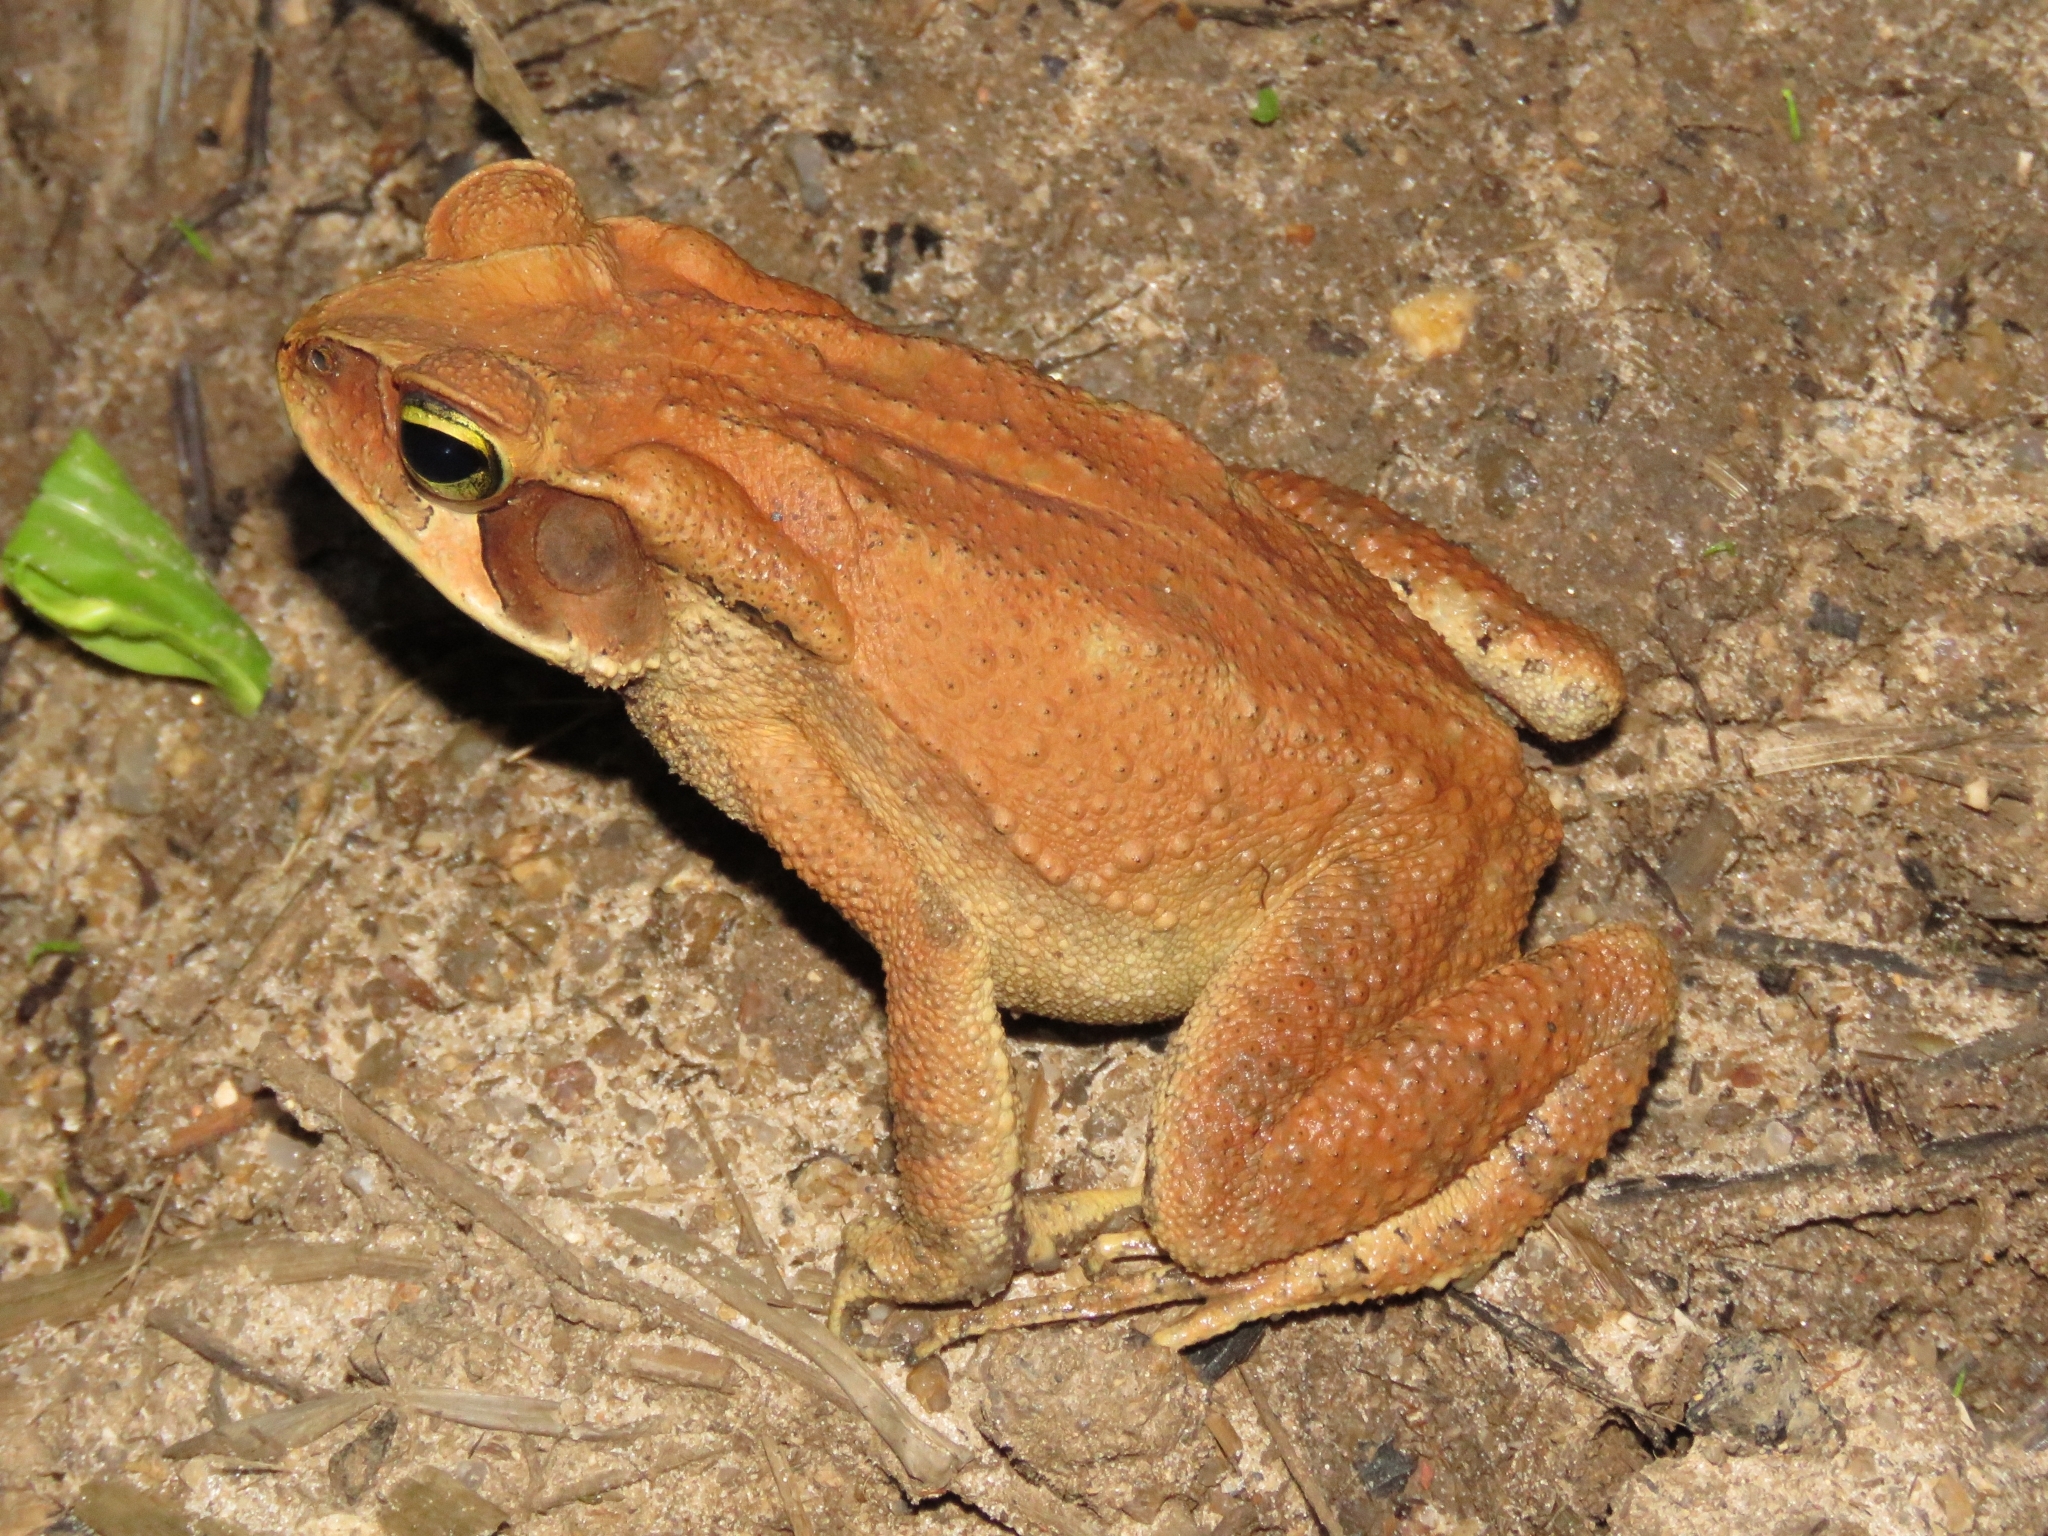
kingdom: Animalia
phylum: Chordata
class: Amphibia
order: Anura
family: Bufonidae
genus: Rhinella
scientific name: Rhinella ornata
